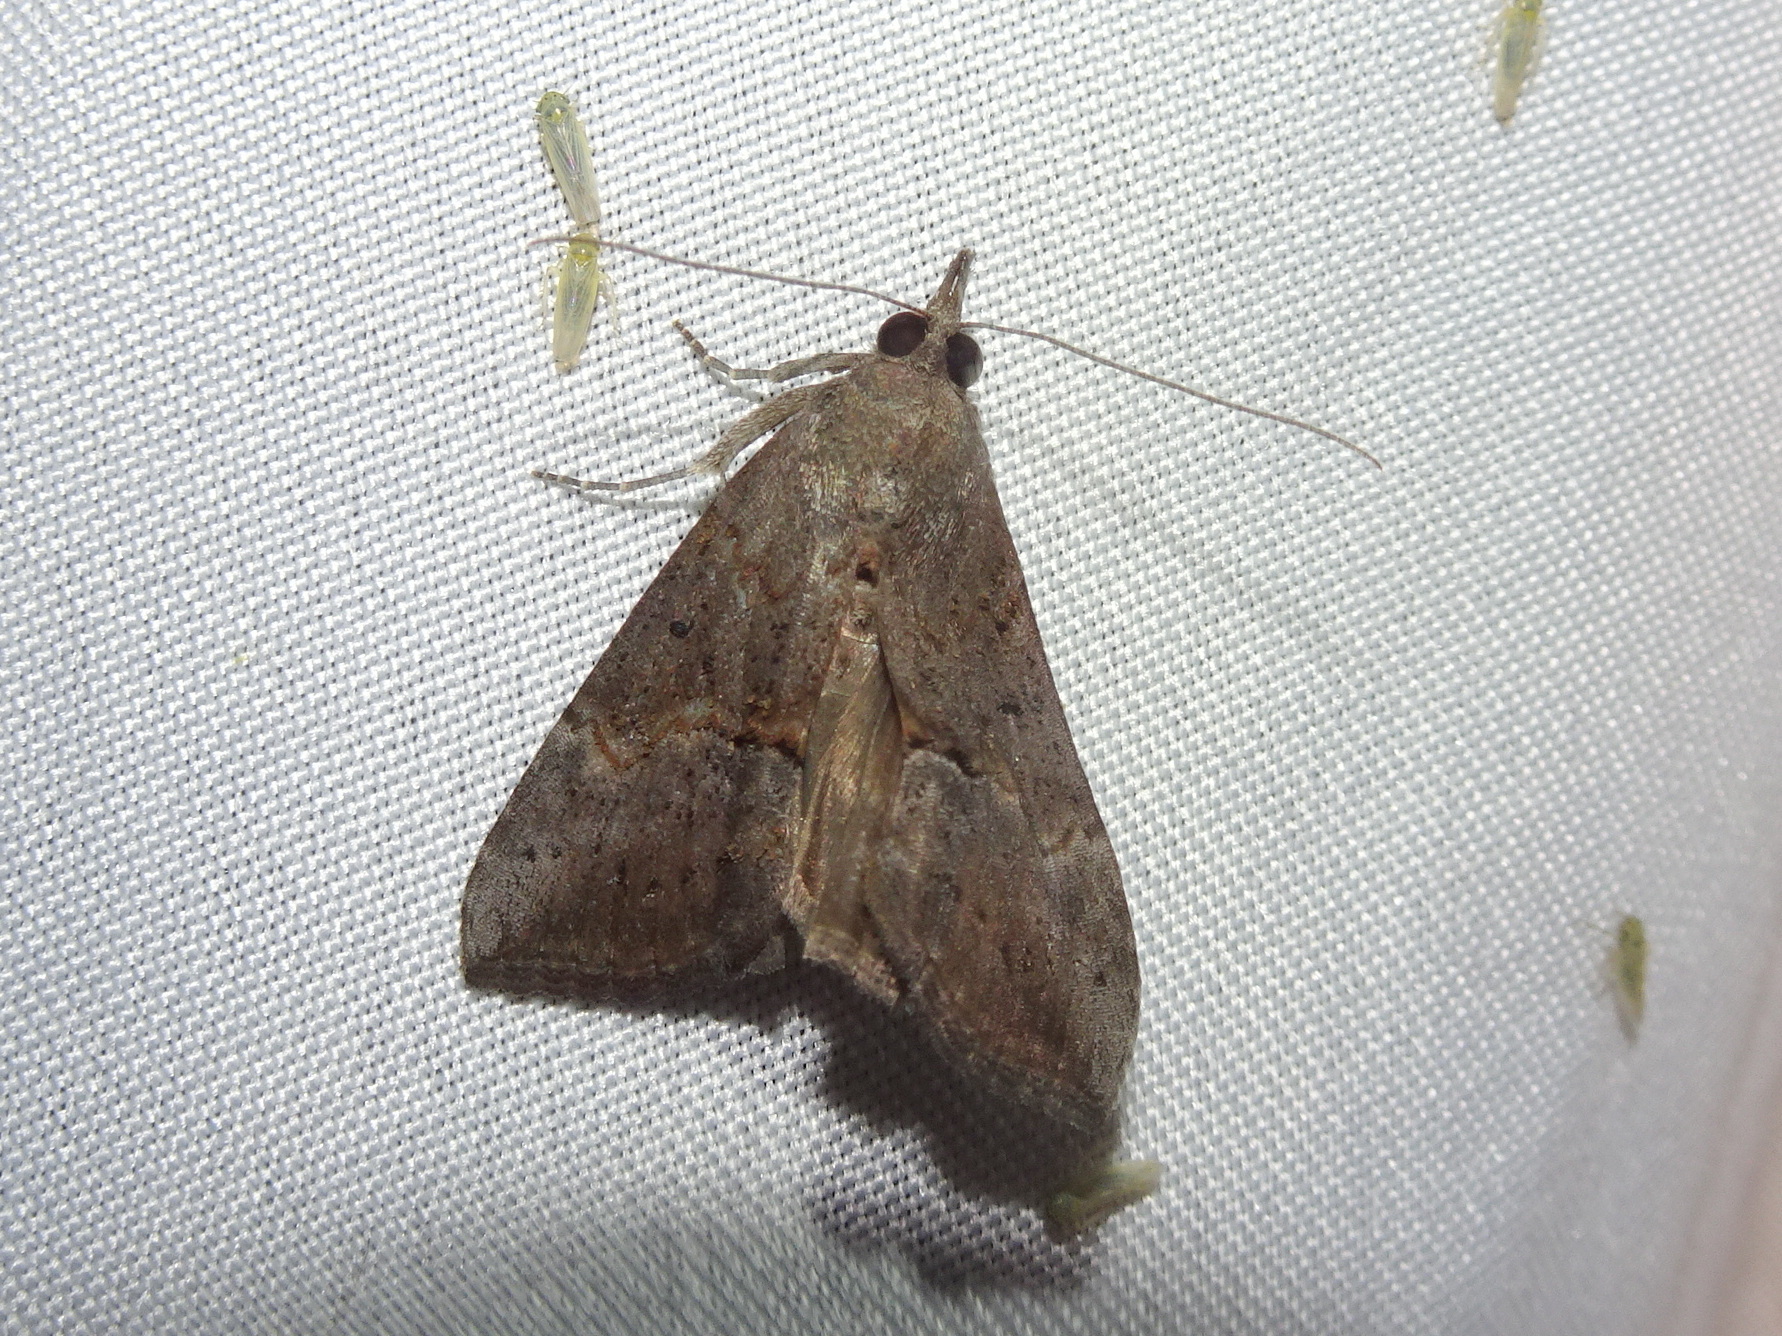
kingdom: Animalia
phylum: Arthropoda
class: Insecta
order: Lepidoptera
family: Erebidae
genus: Hypena
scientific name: Hypena scabra
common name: Green cloverworm
